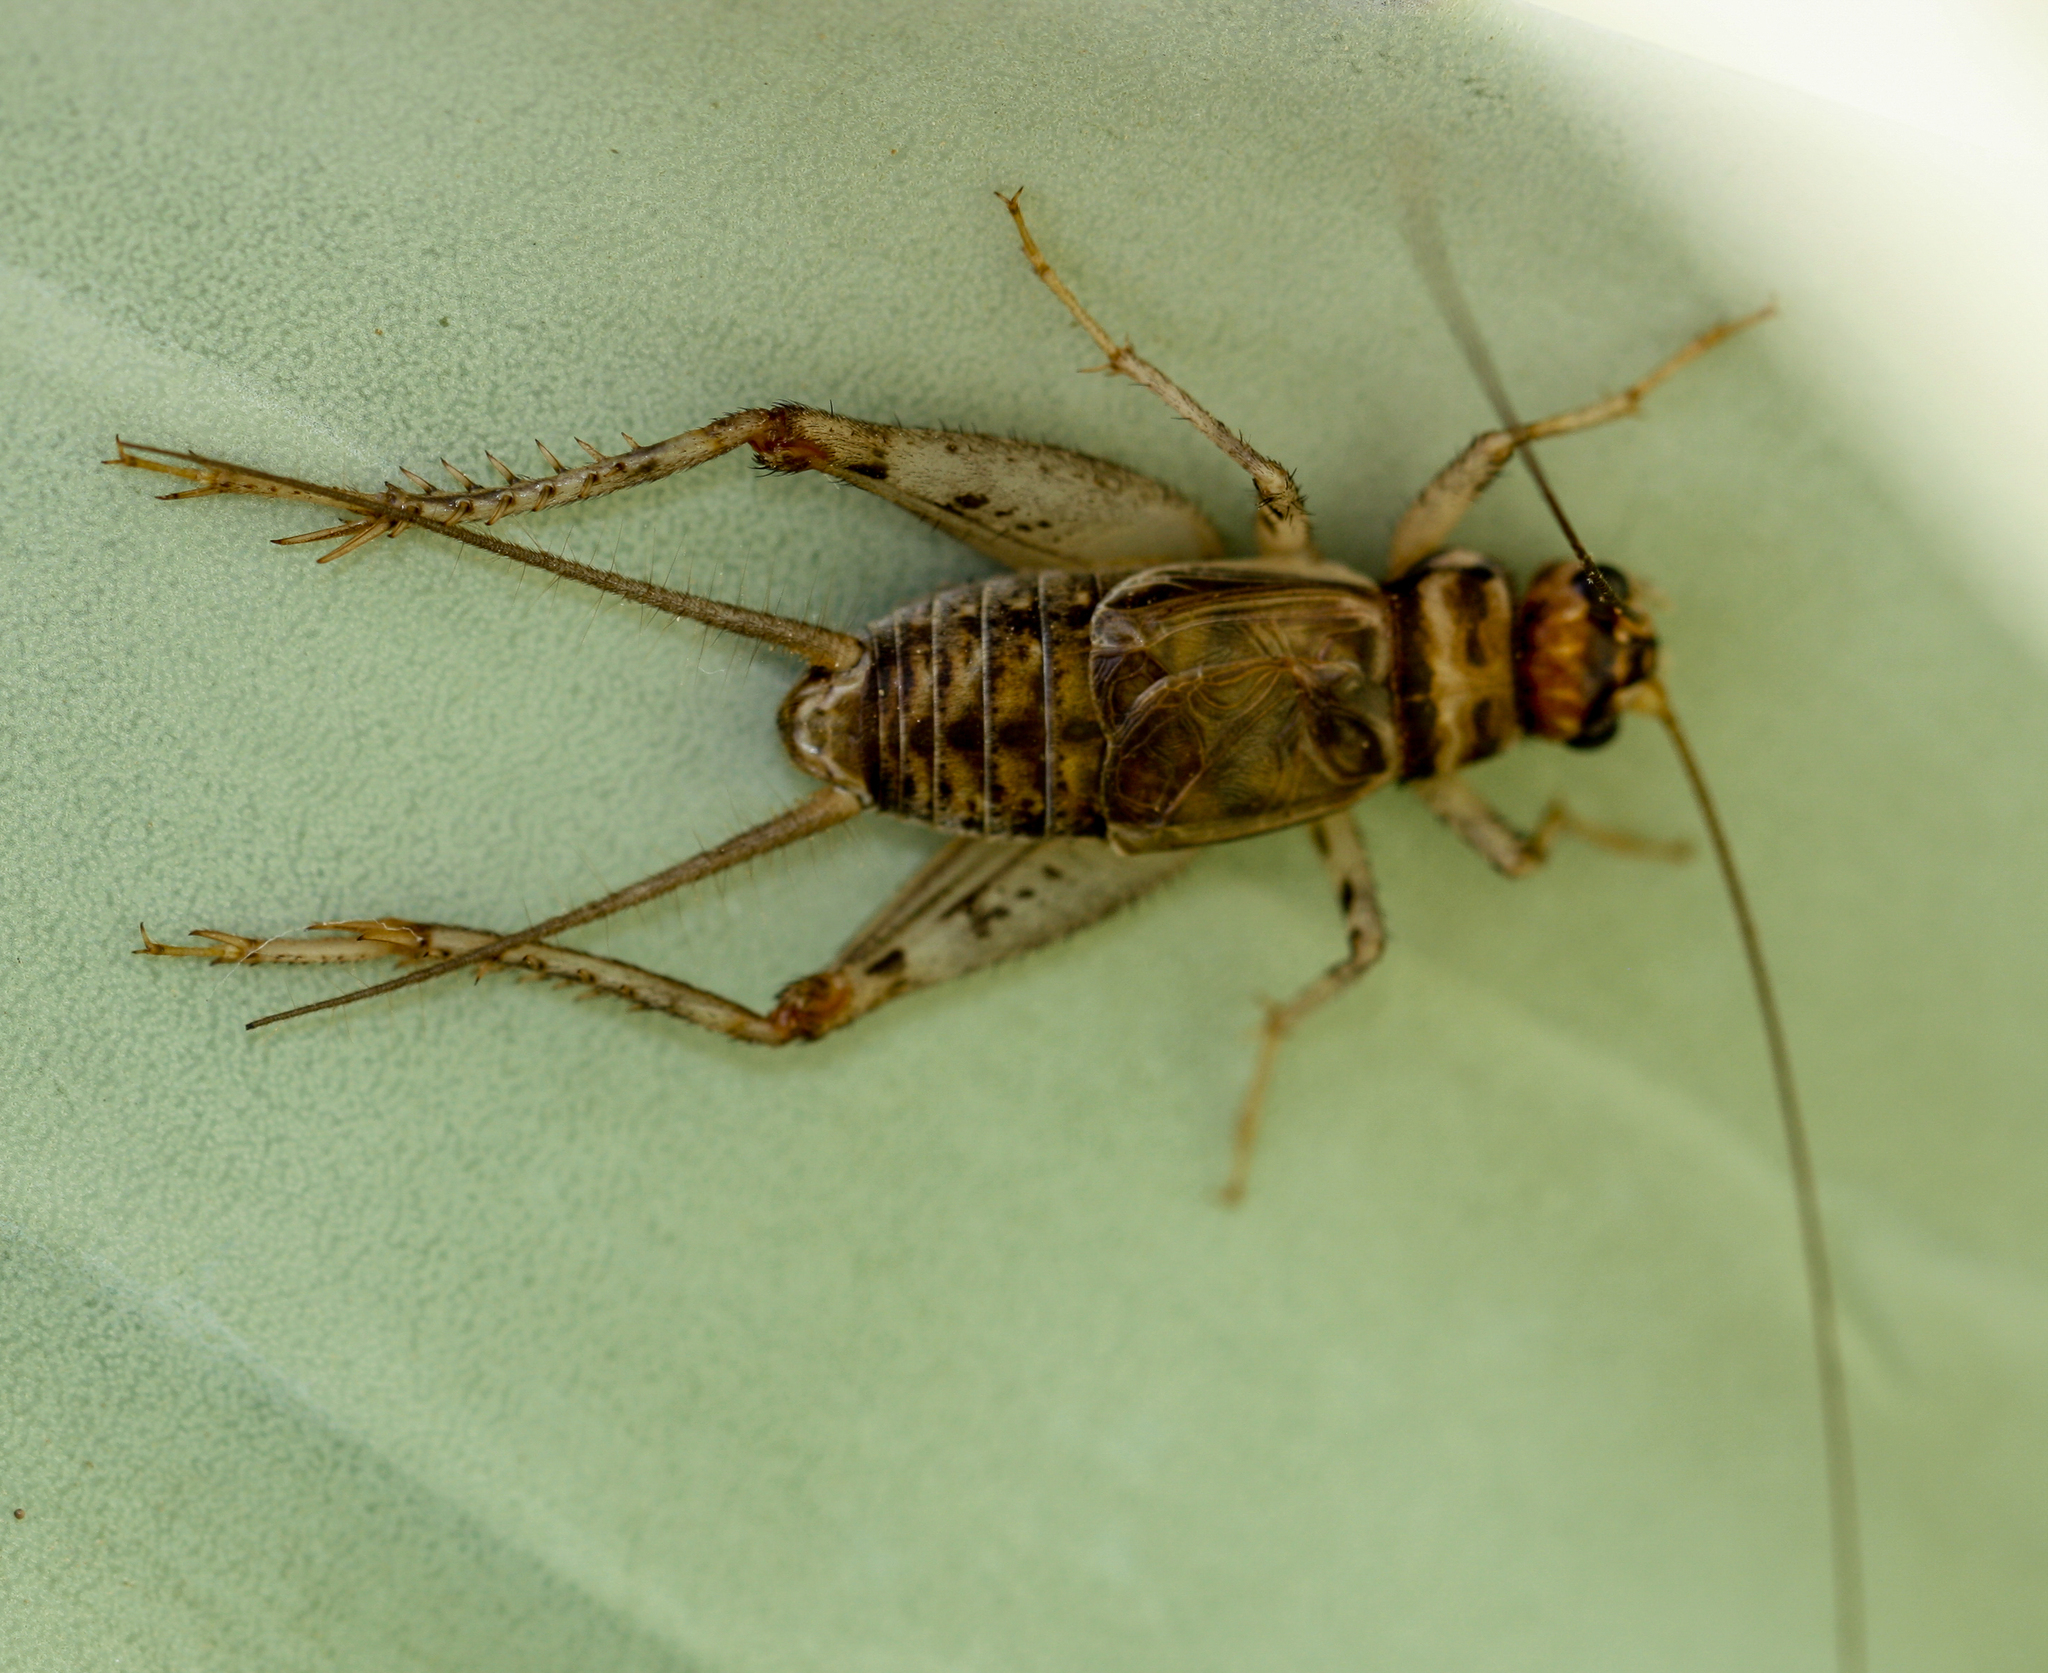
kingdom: Animalia
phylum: Arthropoda
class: Insecta
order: Orthoptera
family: Gryllidae
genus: Gryllodes
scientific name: Gryllodes sigillatus
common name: Tropical house cricket
